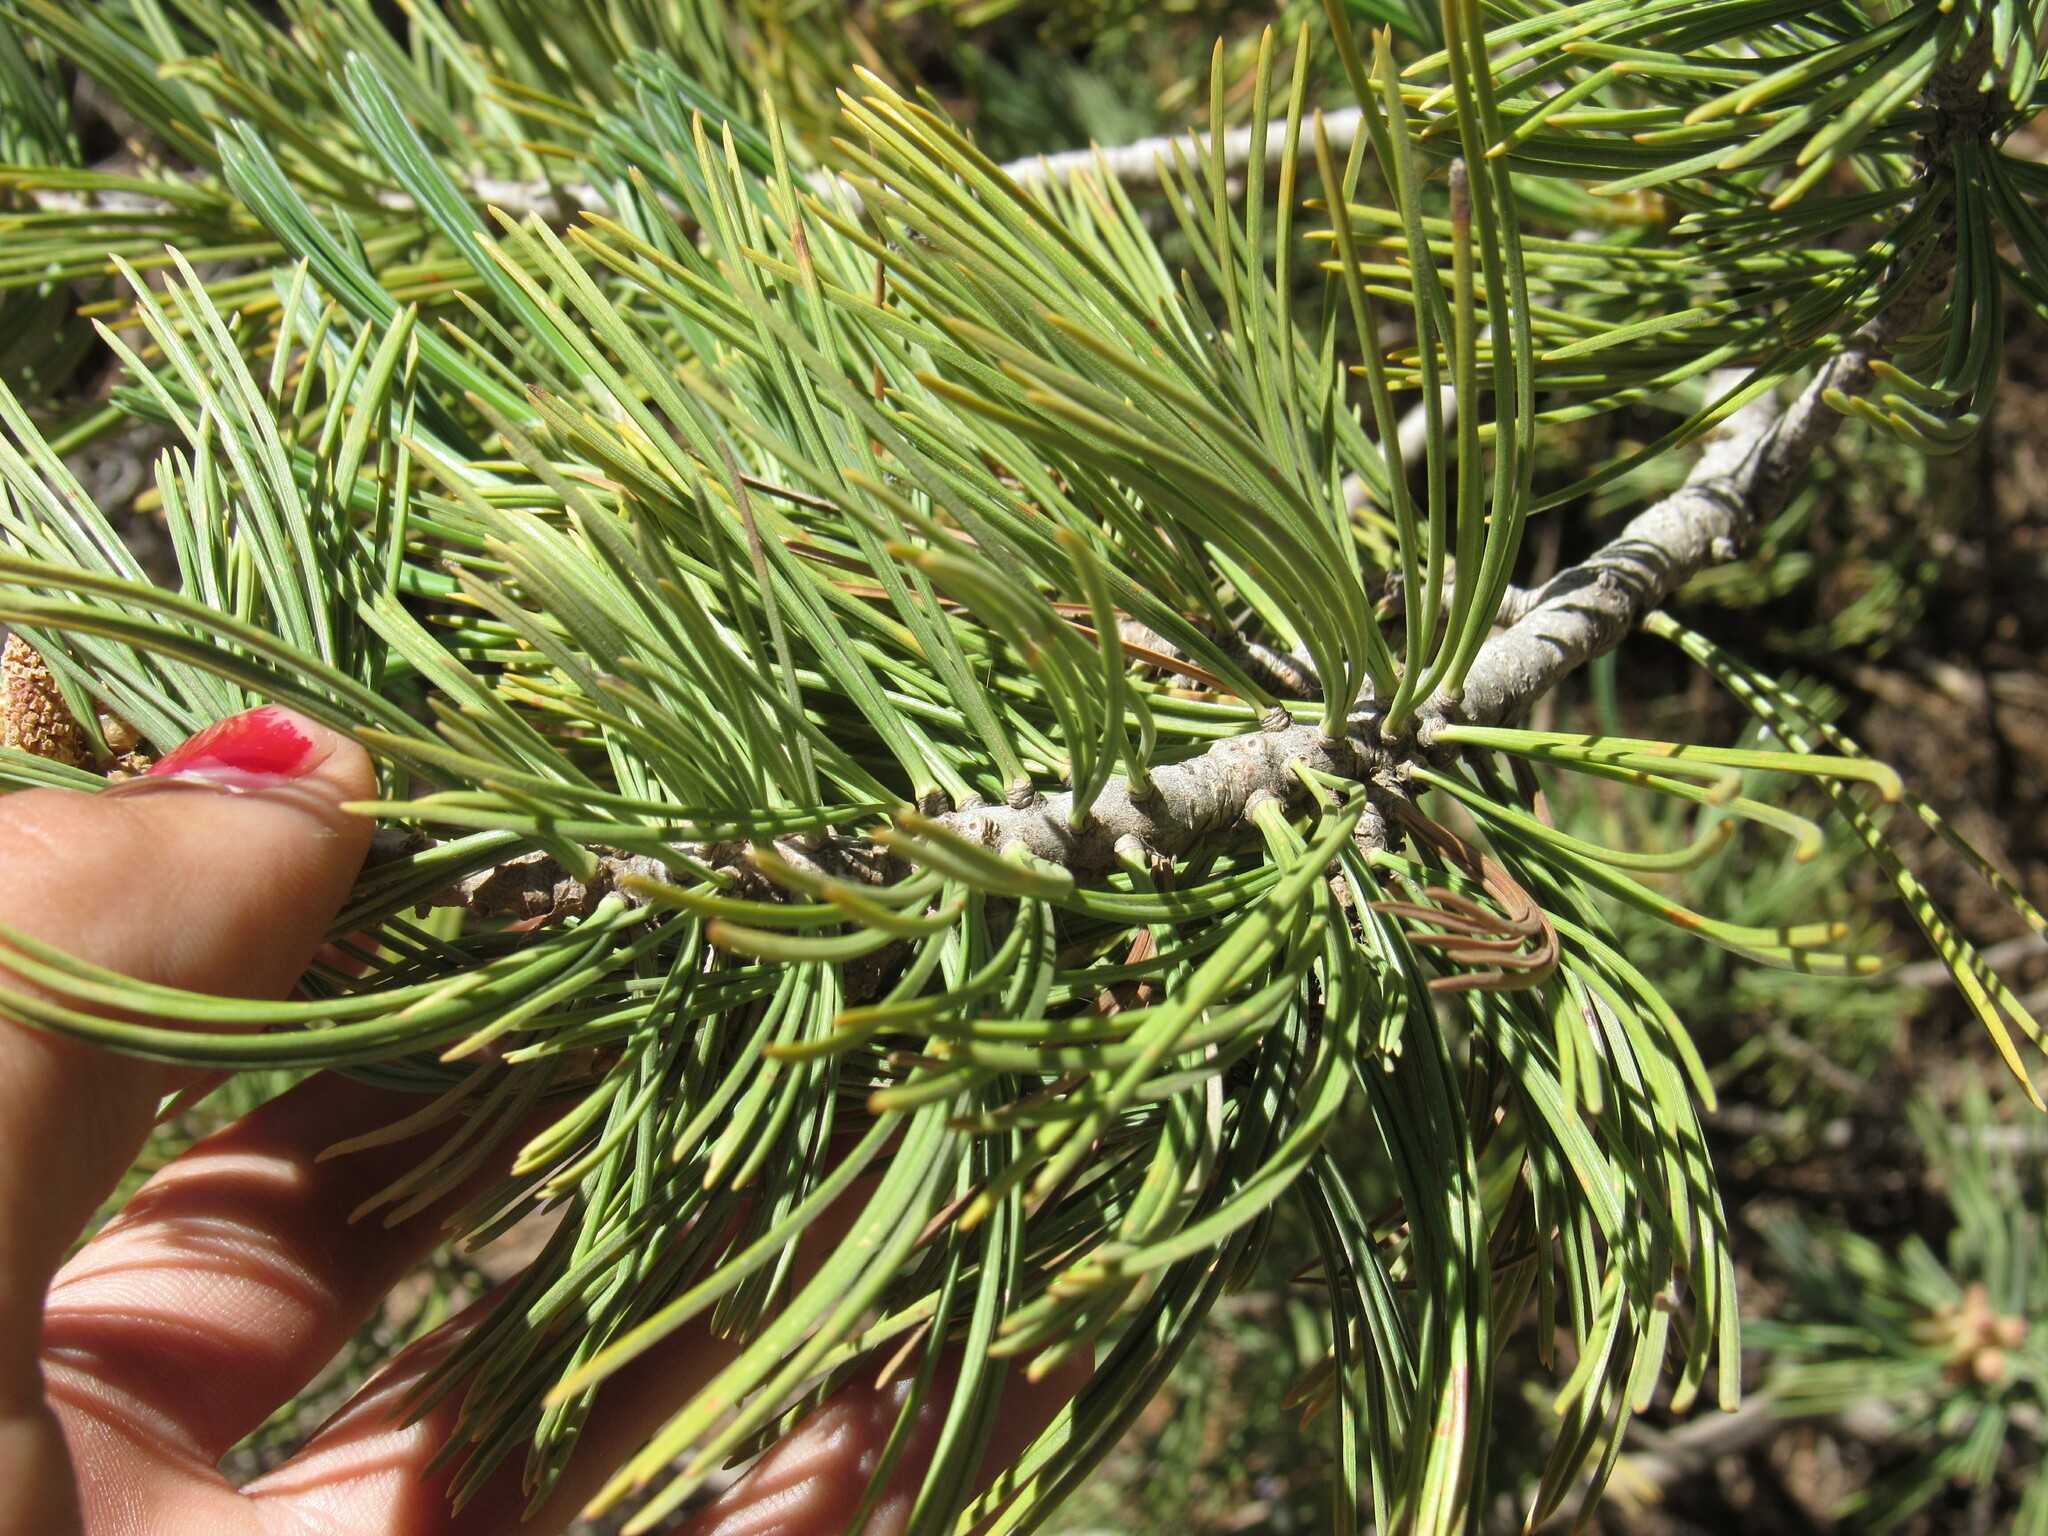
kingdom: Plantae
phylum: Tracheophyta
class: Pinopsida
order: Pinales
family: Pinaceae
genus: Pinus
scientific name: Pinus flexilis
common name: Limber pine
